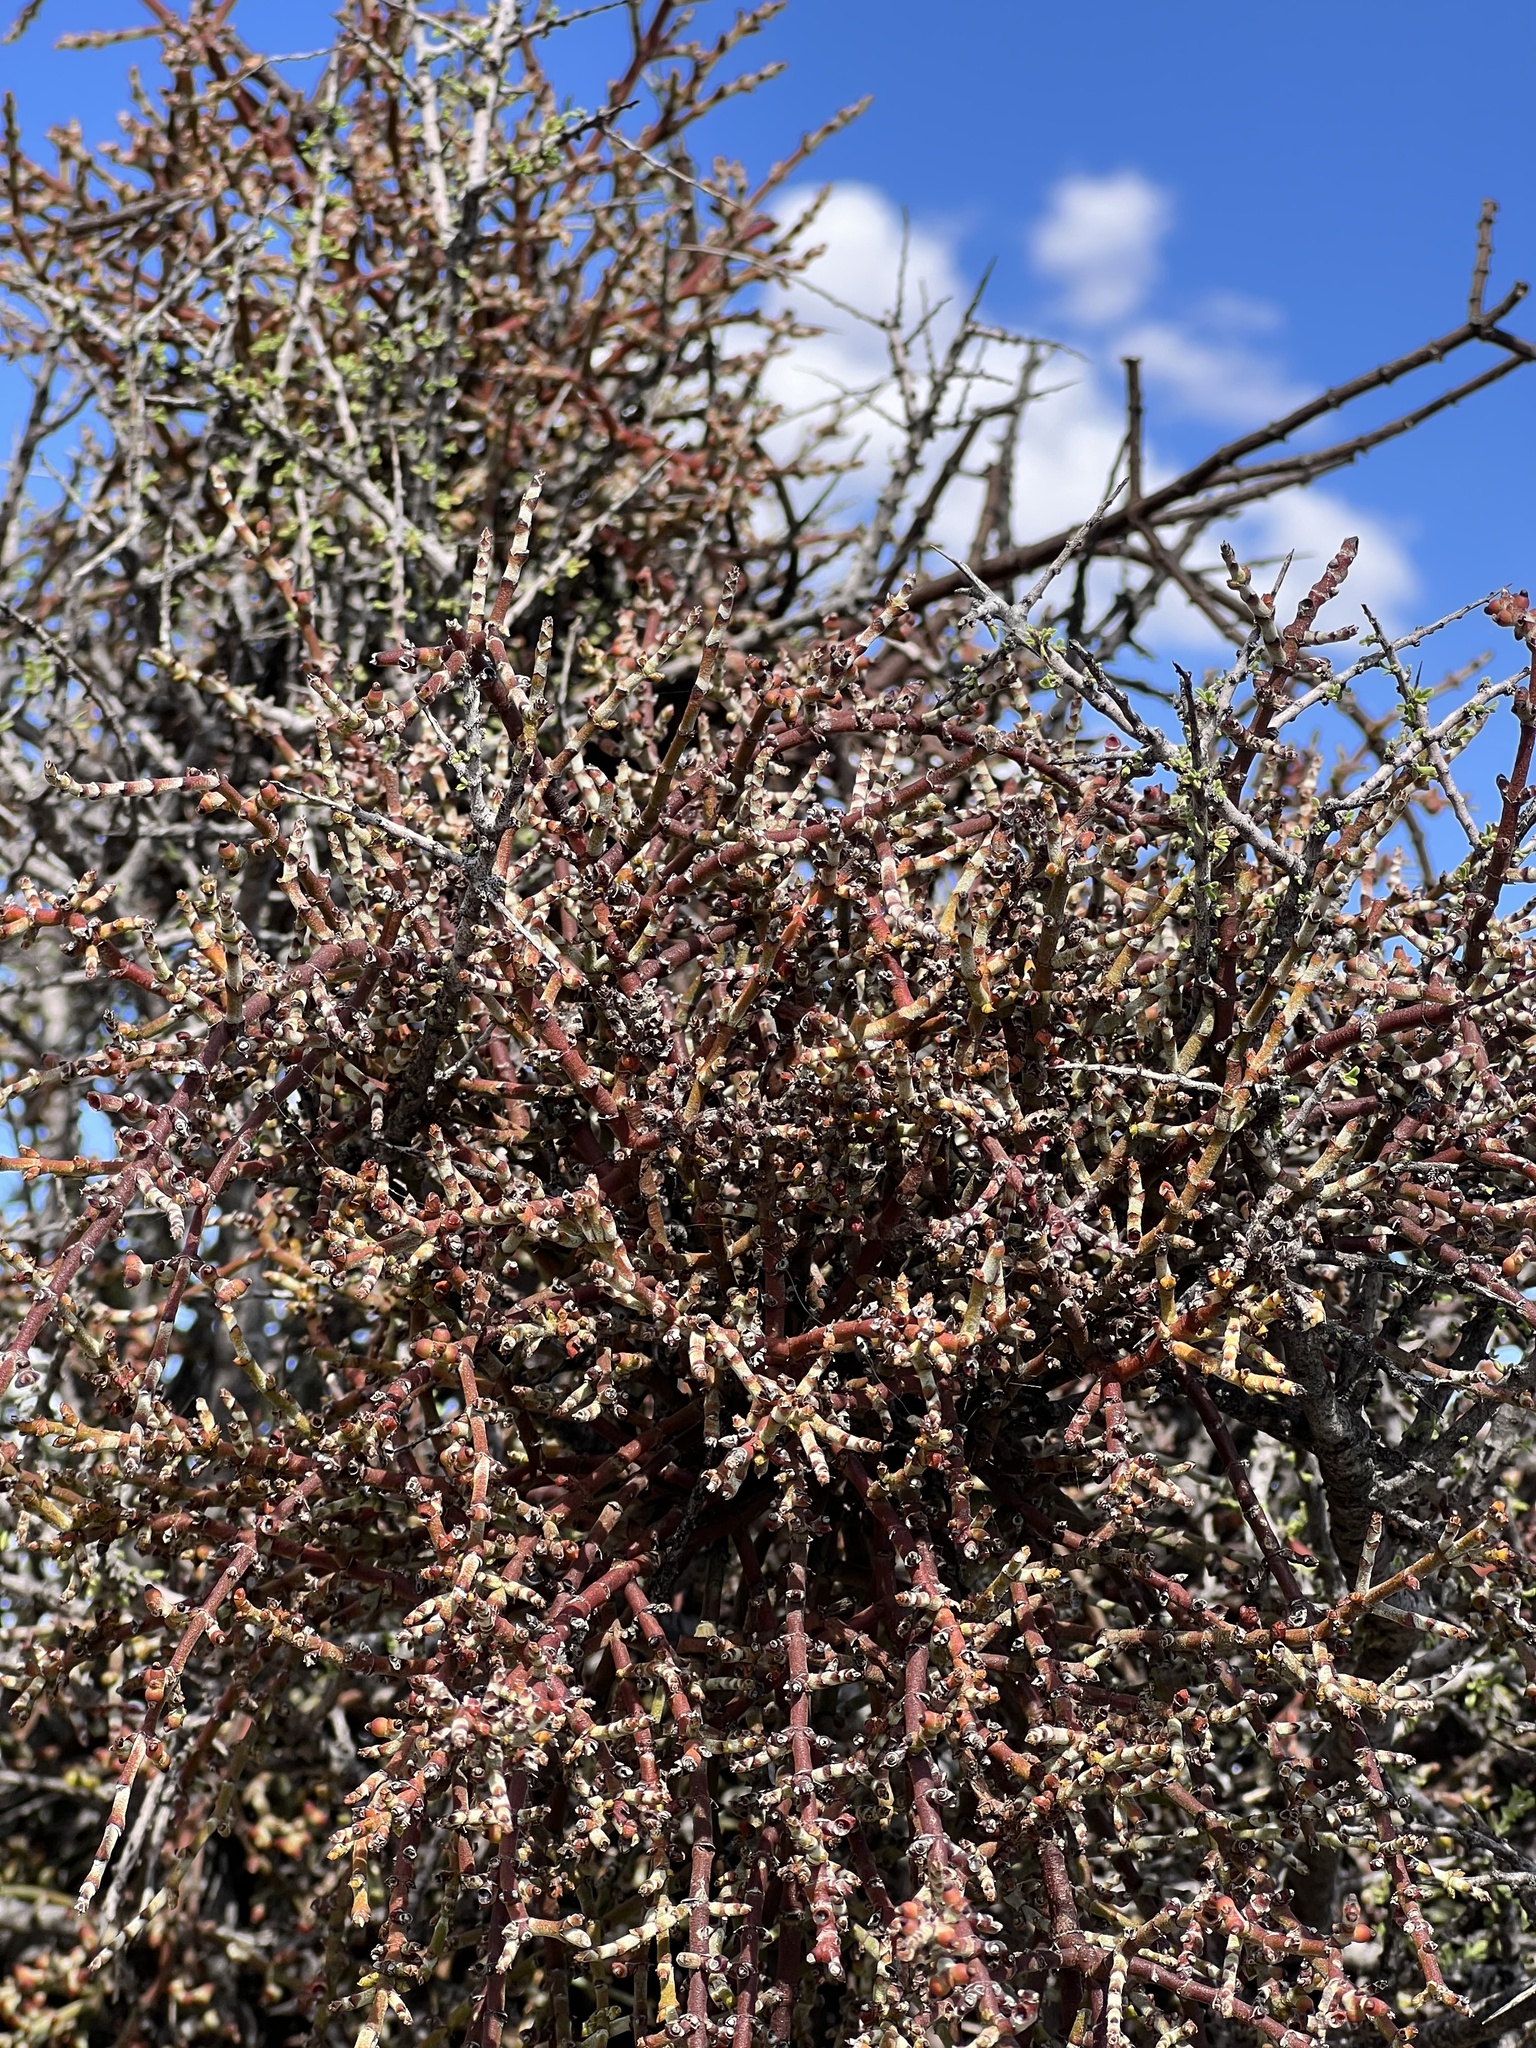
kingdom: Plantae
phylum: Tracheophyta
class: Magnoliopsida
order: Santalales
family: Viscaceae
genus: Phoradendron
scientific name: Phoradendron californicum
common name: Acacia mistletoe
